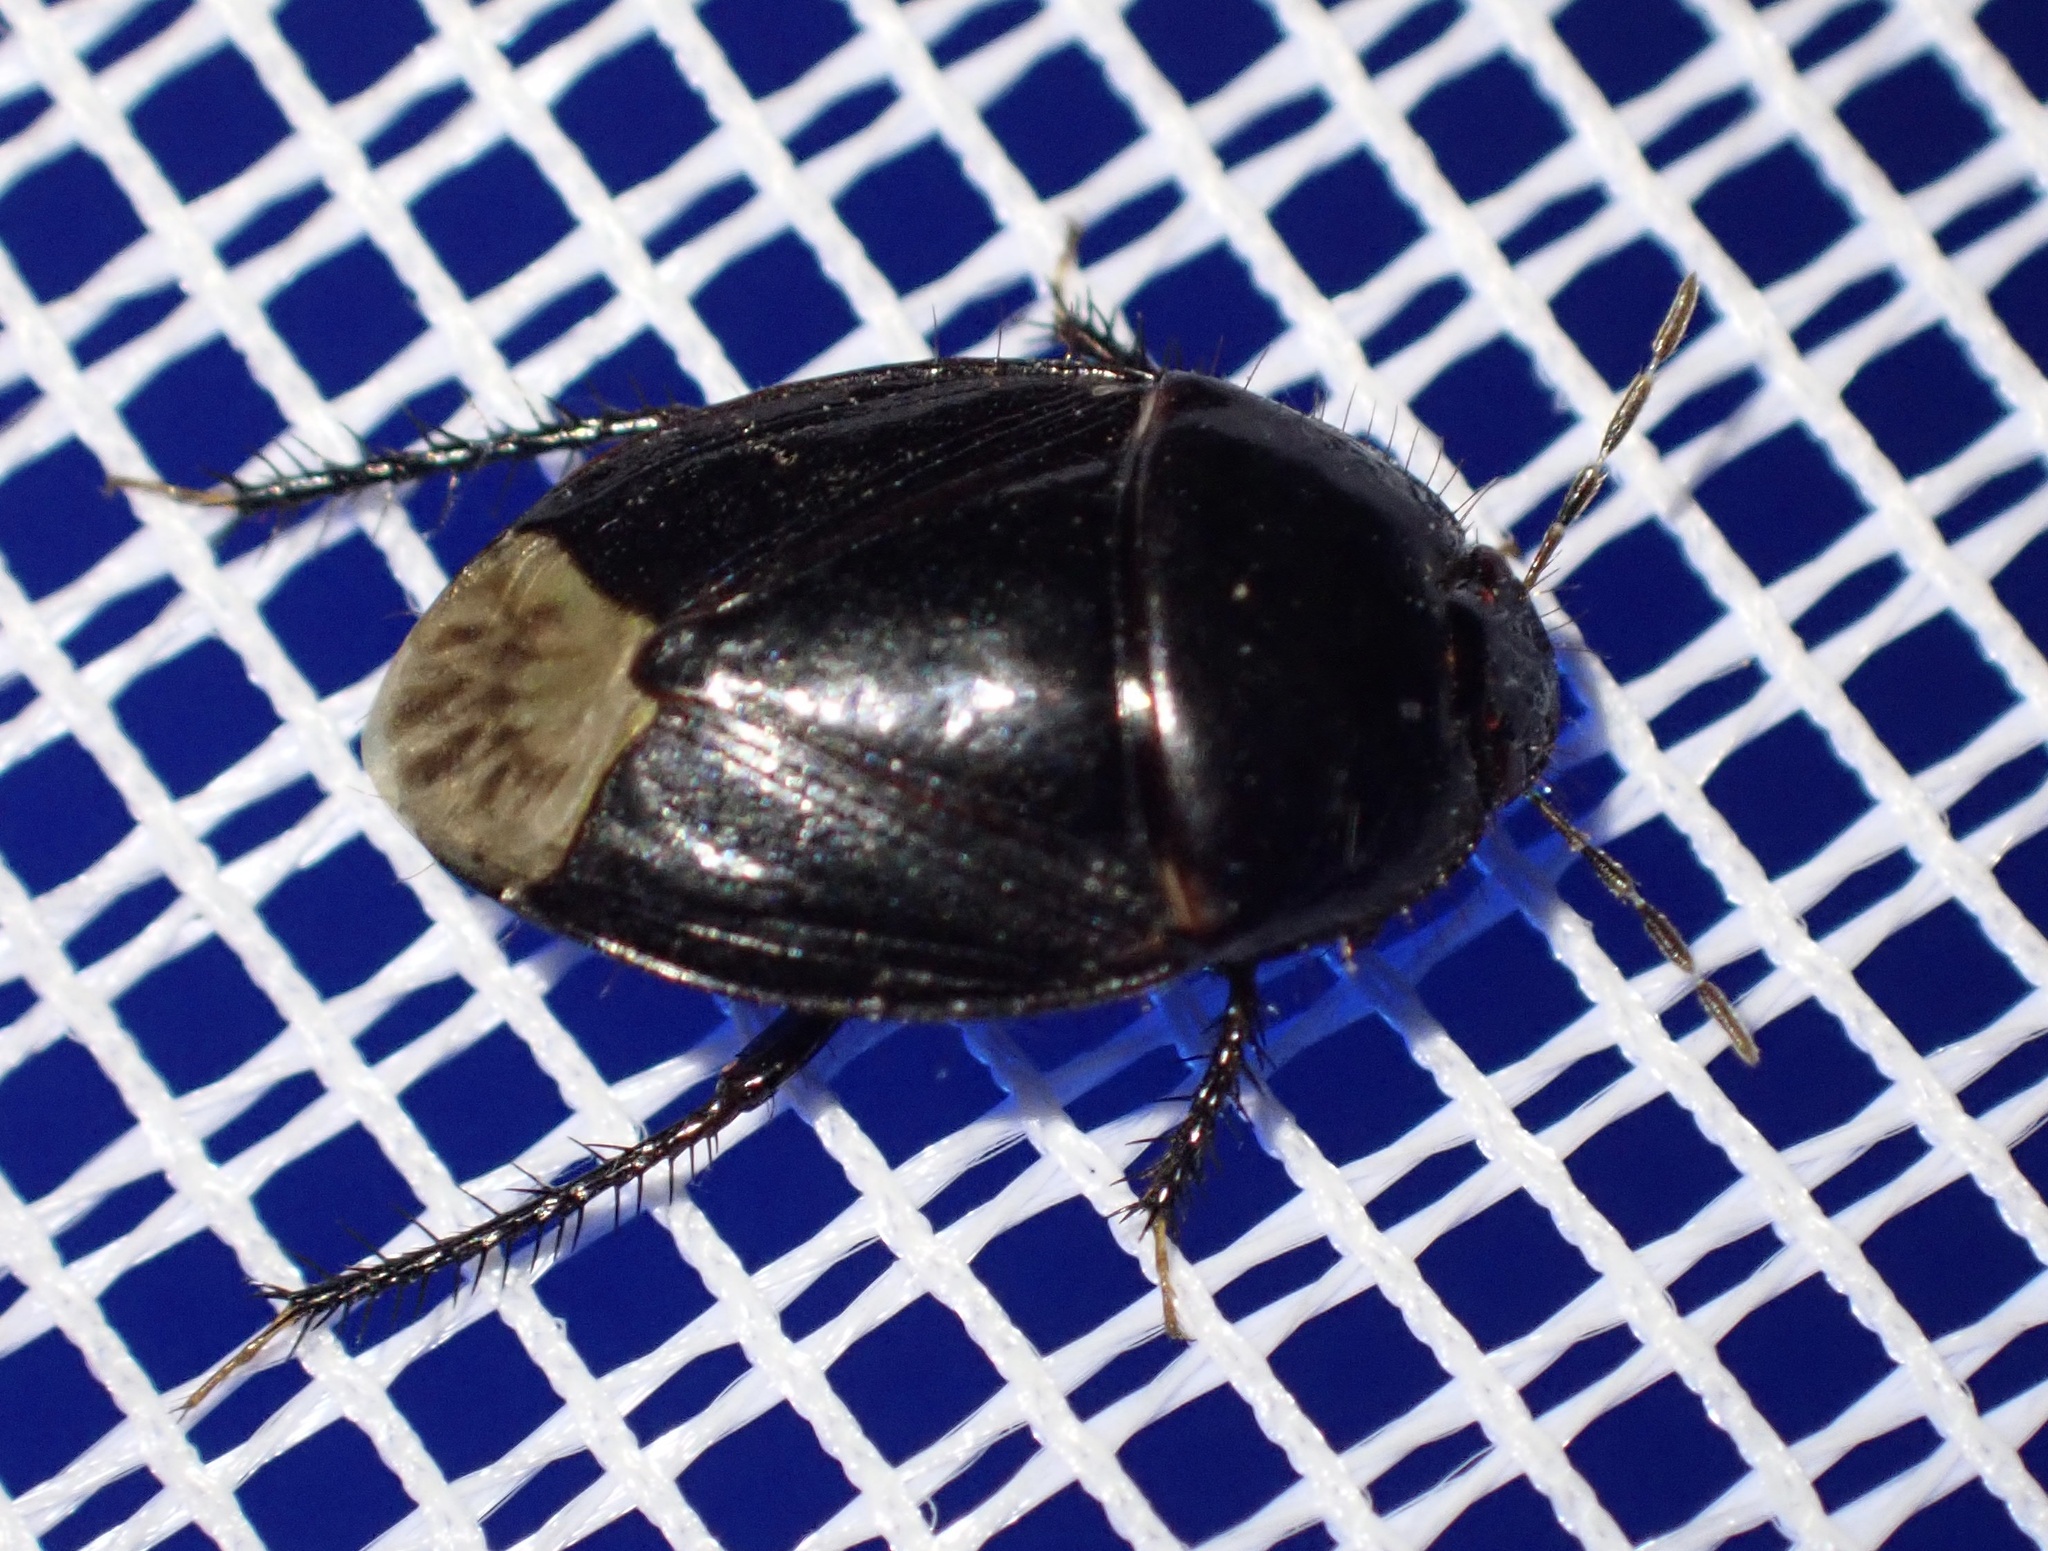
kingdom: Animalia
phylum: Arthropoda
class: Insecta
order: Hemiptera
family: Cydnidae
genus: Macroscytus
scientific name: Macroscytus brunneus
